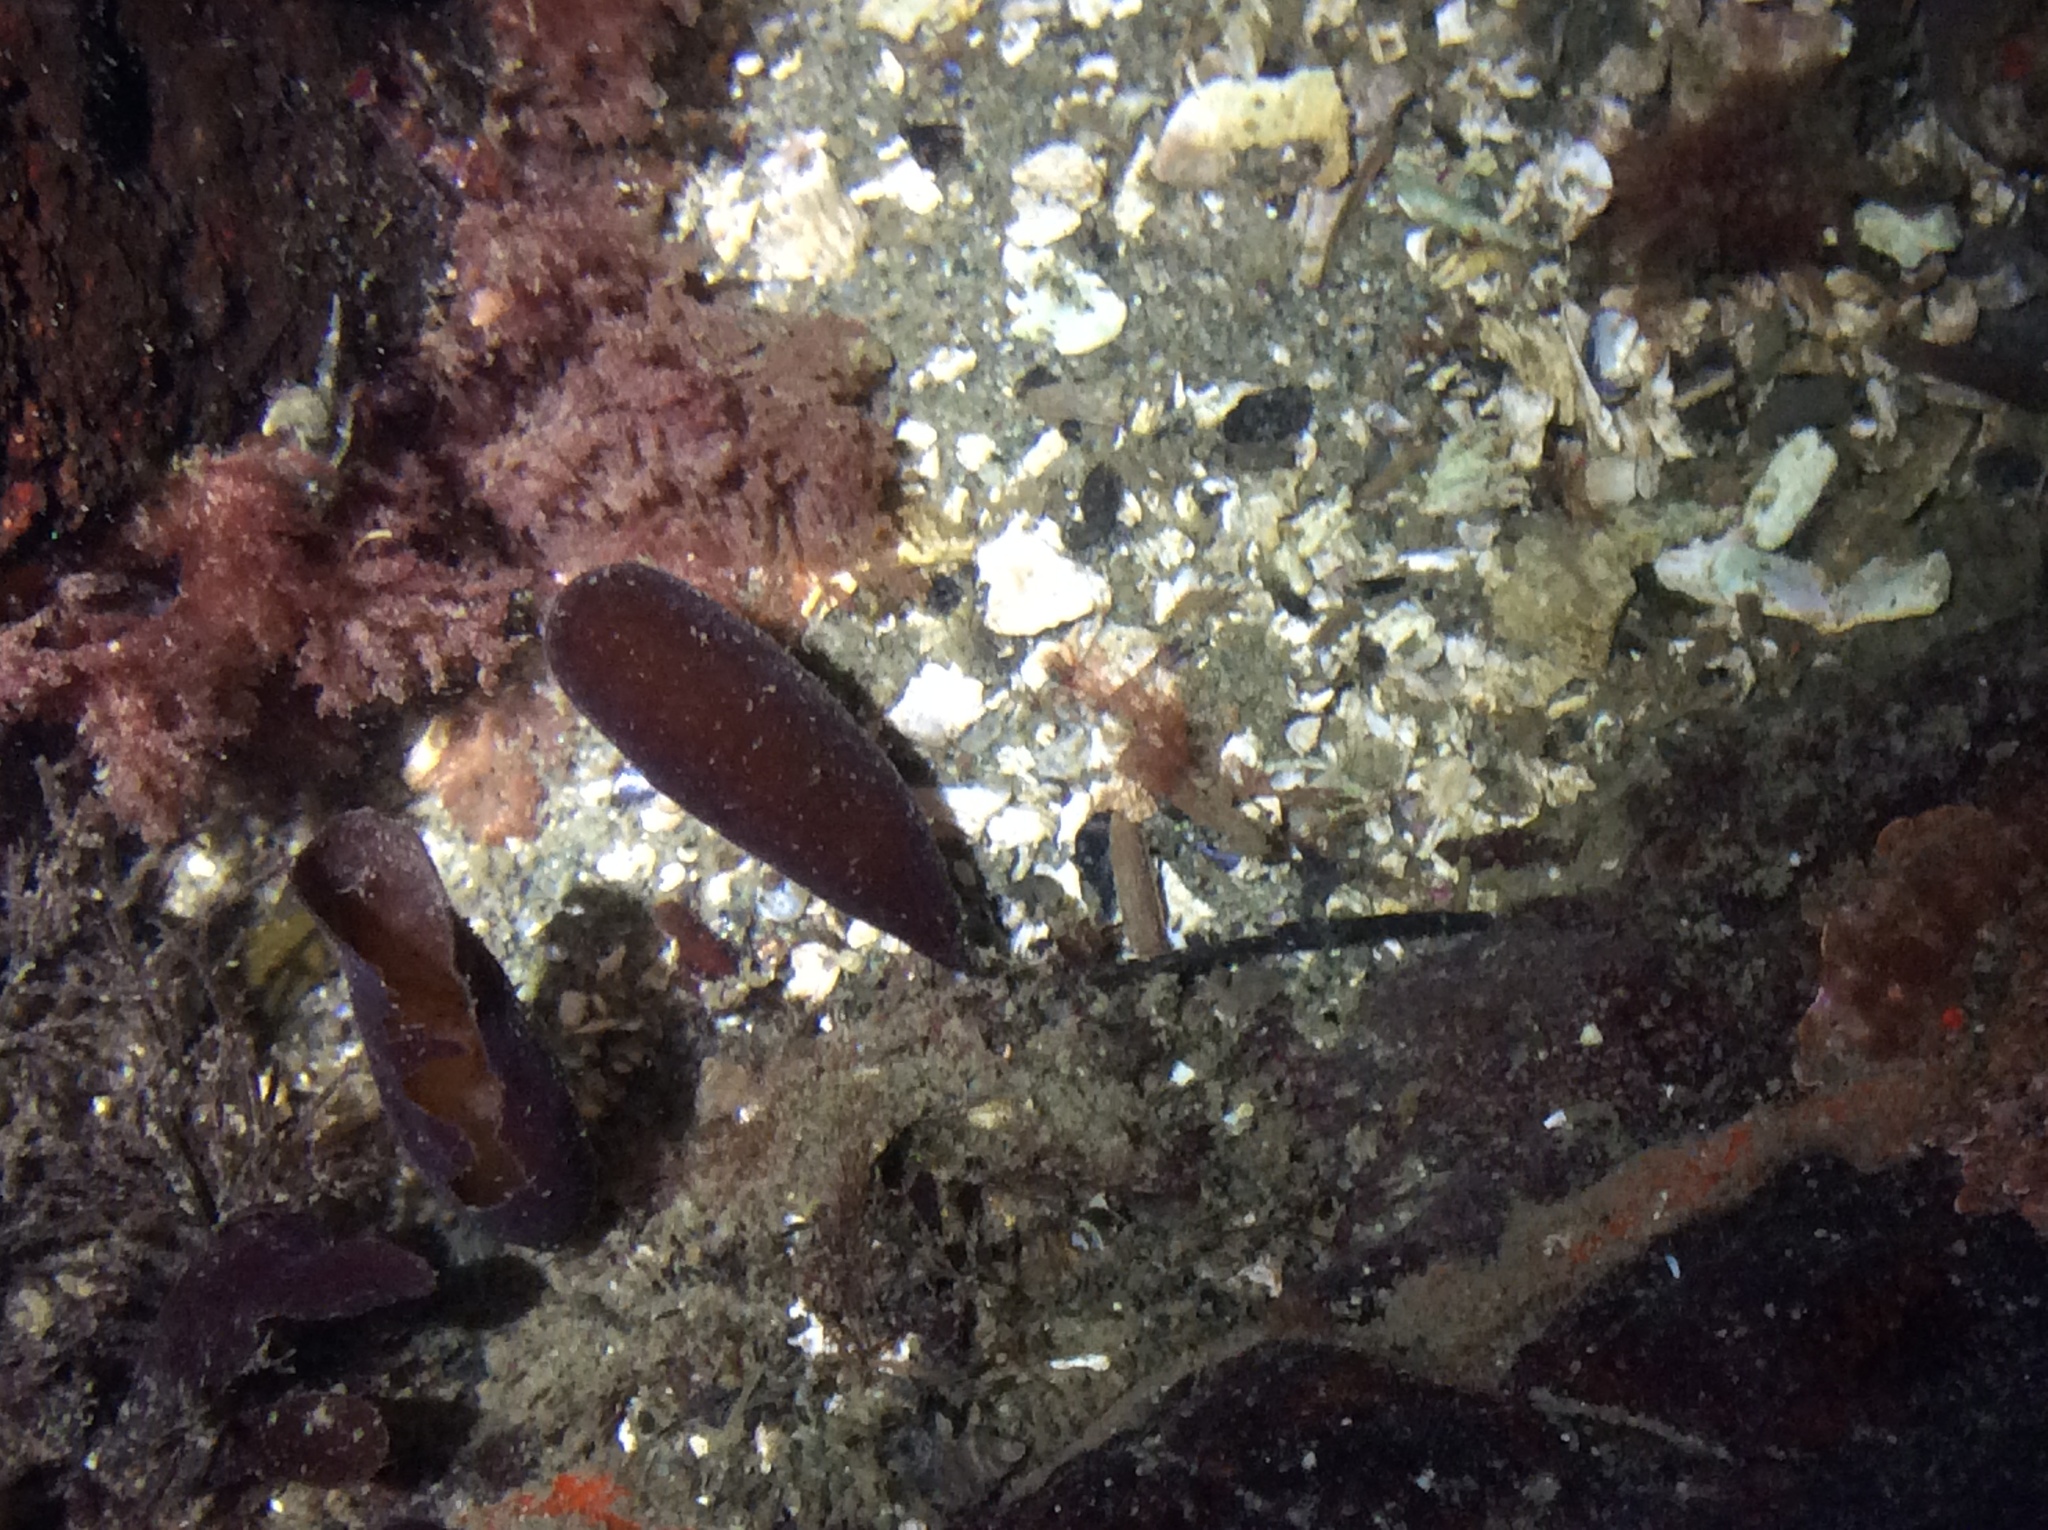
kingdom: Plantae
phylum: Rhodophyta
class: Florideophyceae
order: Palmariales
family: Palmariaceae
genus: Halosaccion
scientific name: Halosaccion glandiforme
